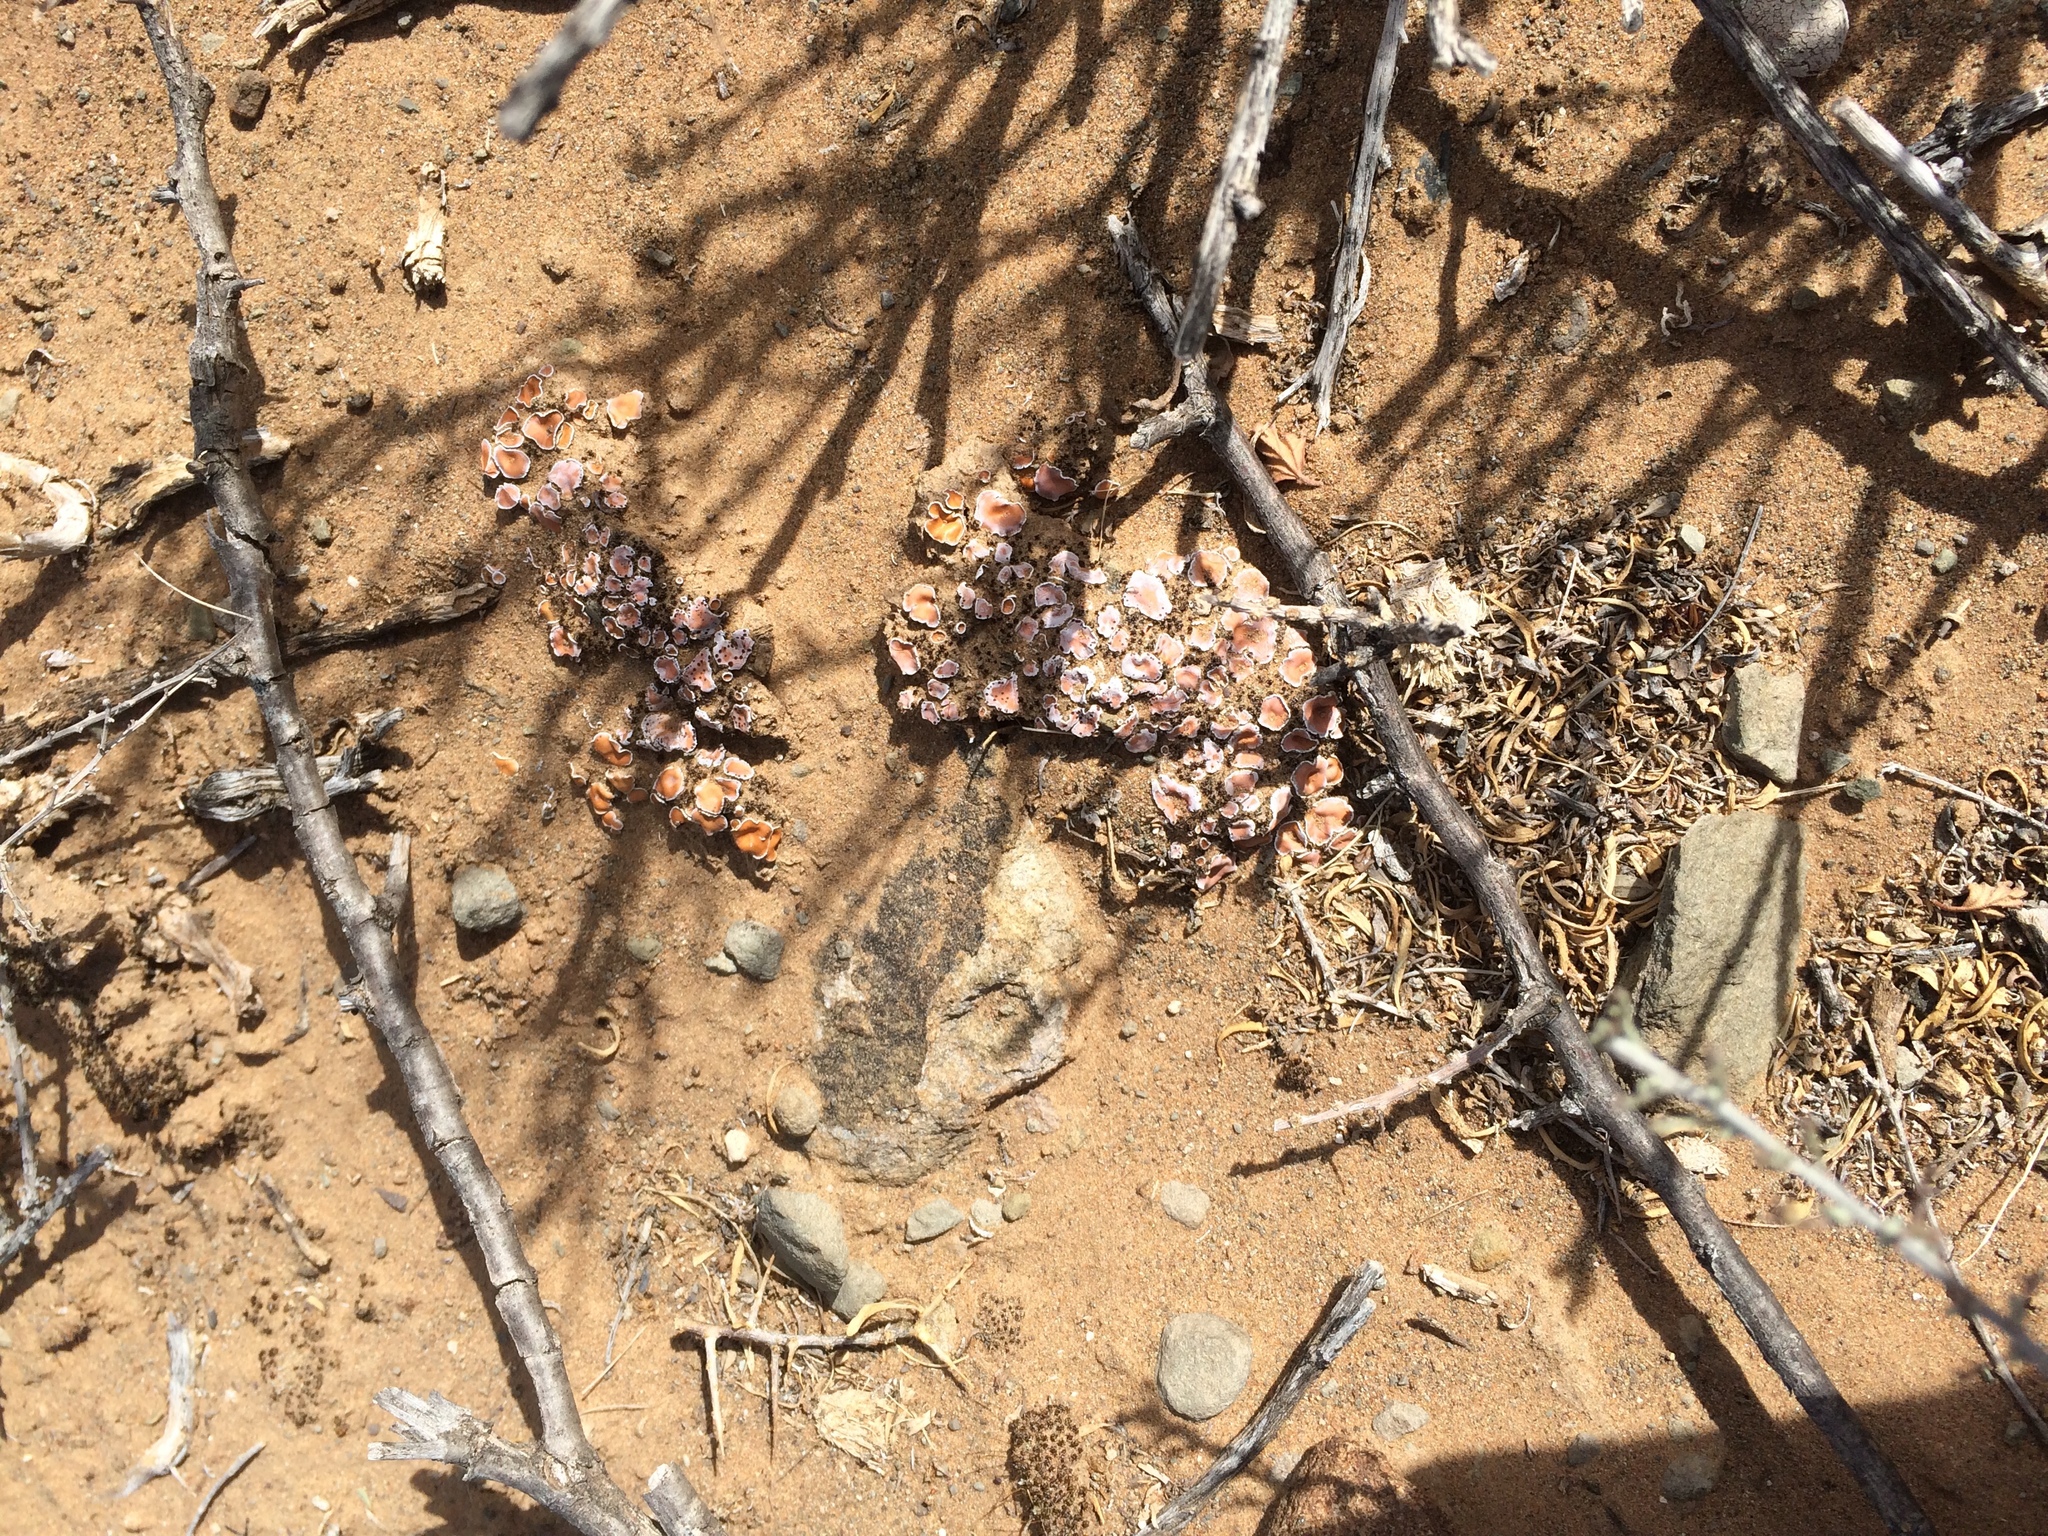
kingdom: Fungi
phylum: Ascomycota
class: Lecanoromycetes
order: Lecanorales
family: Psoraceae
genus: Psora
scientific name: Psora crenata
